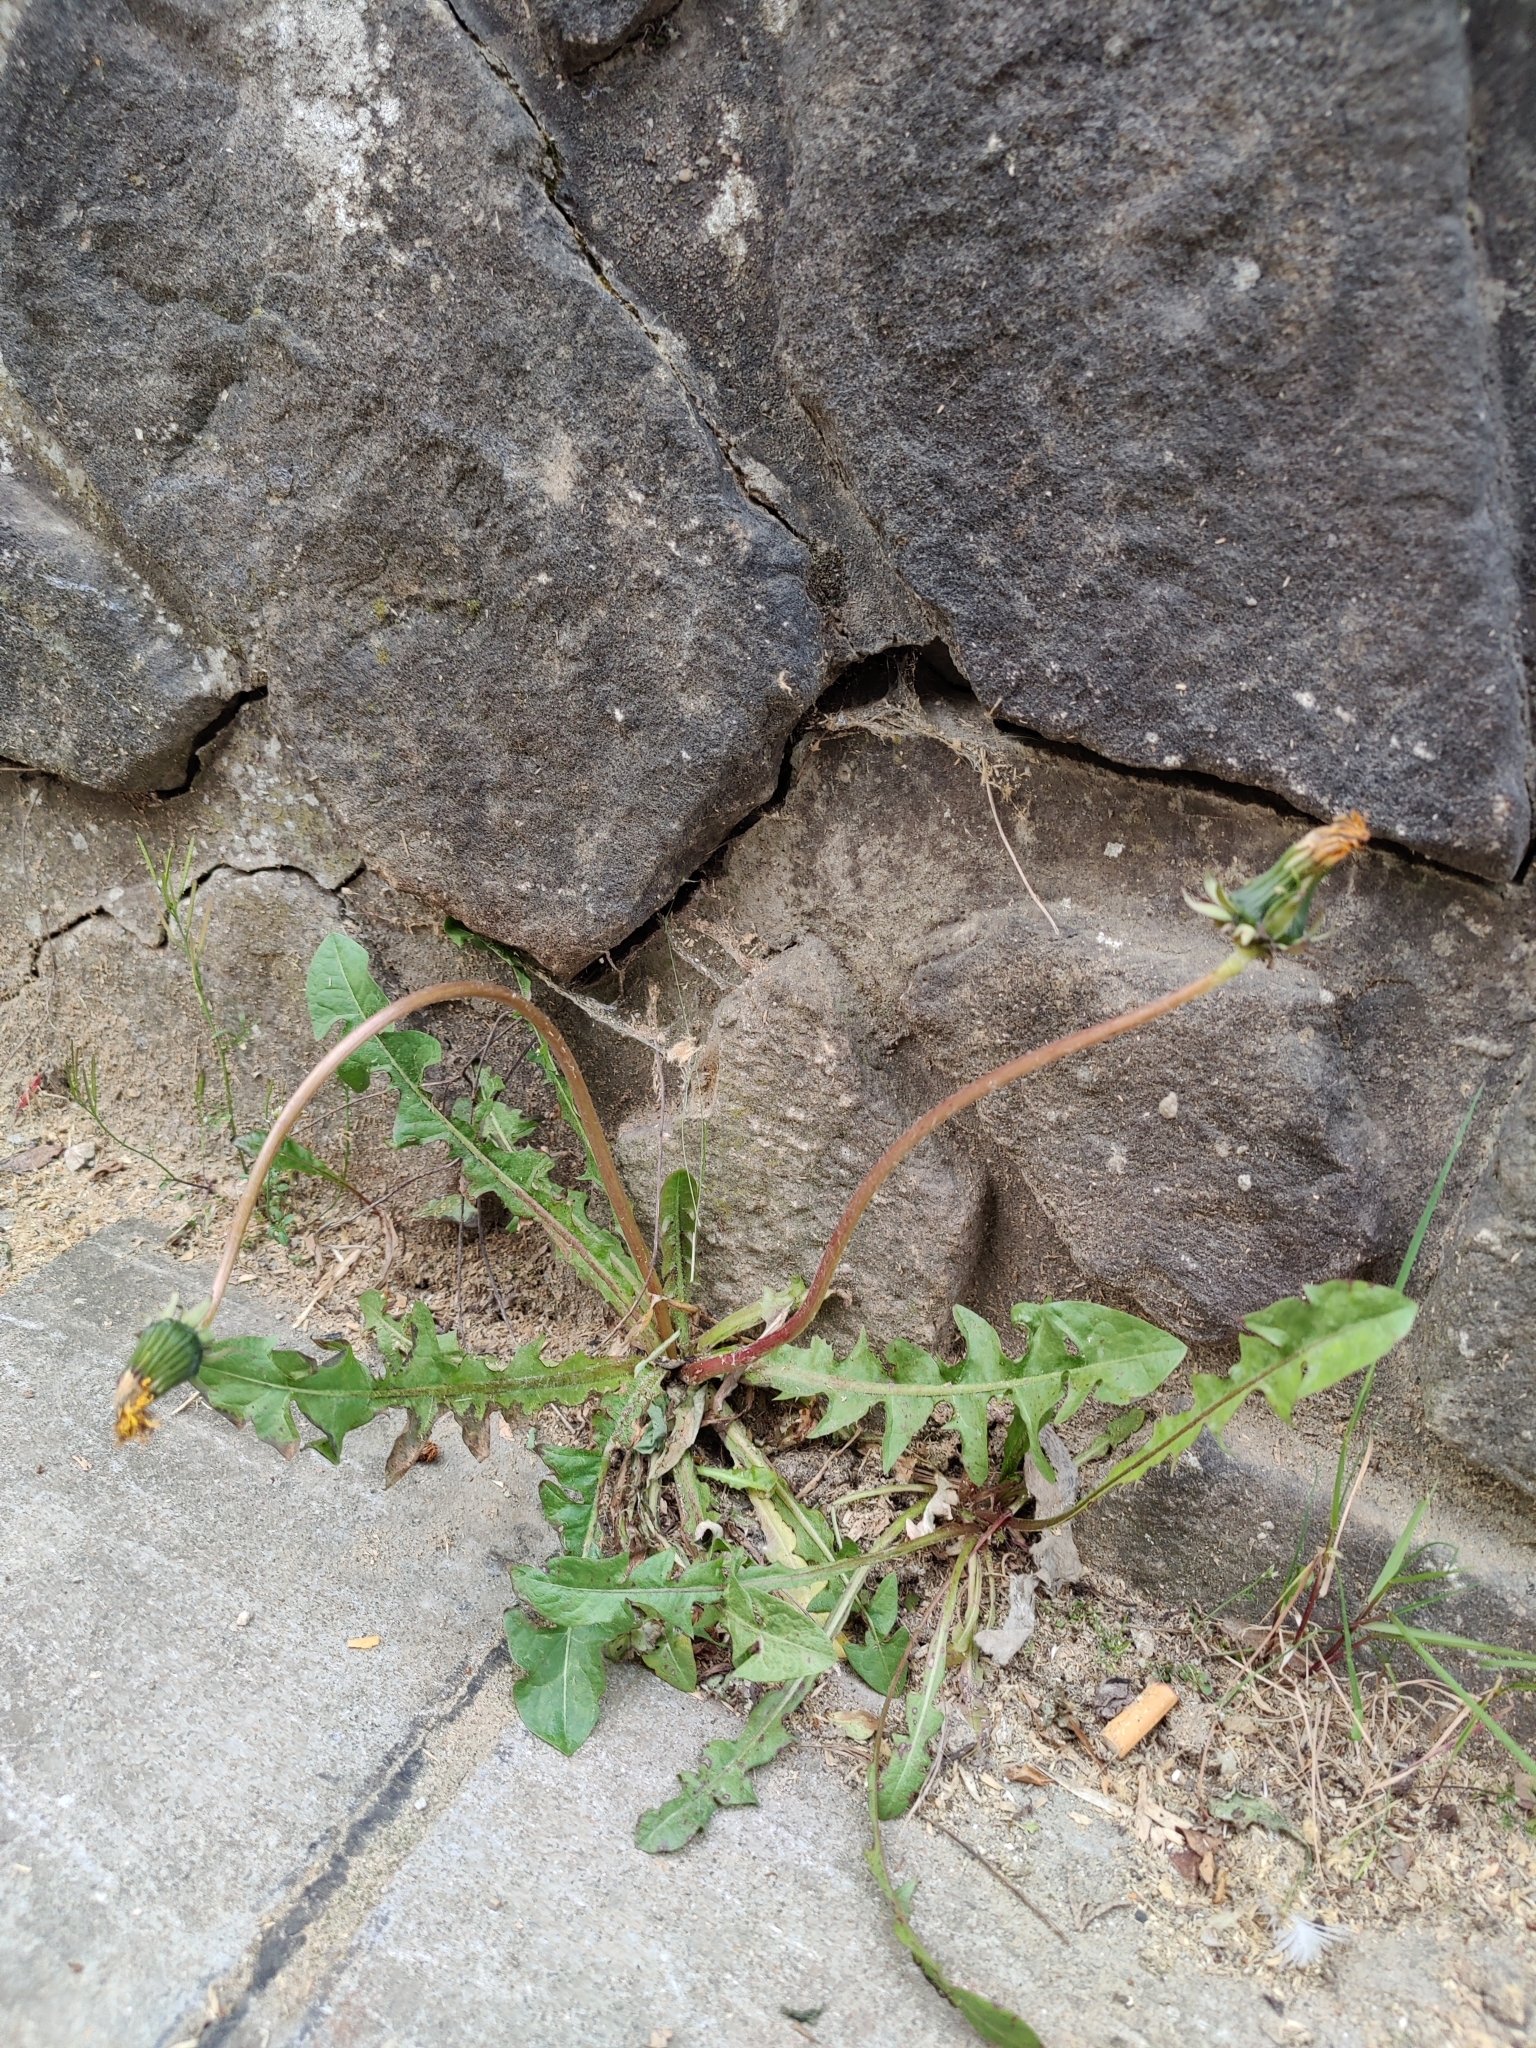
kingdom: Plantae
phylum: Tracheophyta
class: Magnoliopsida
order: Asterales
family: Asteraceae
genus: Taraxacum
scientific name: Taraxacum officinale
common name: Common dandelion
